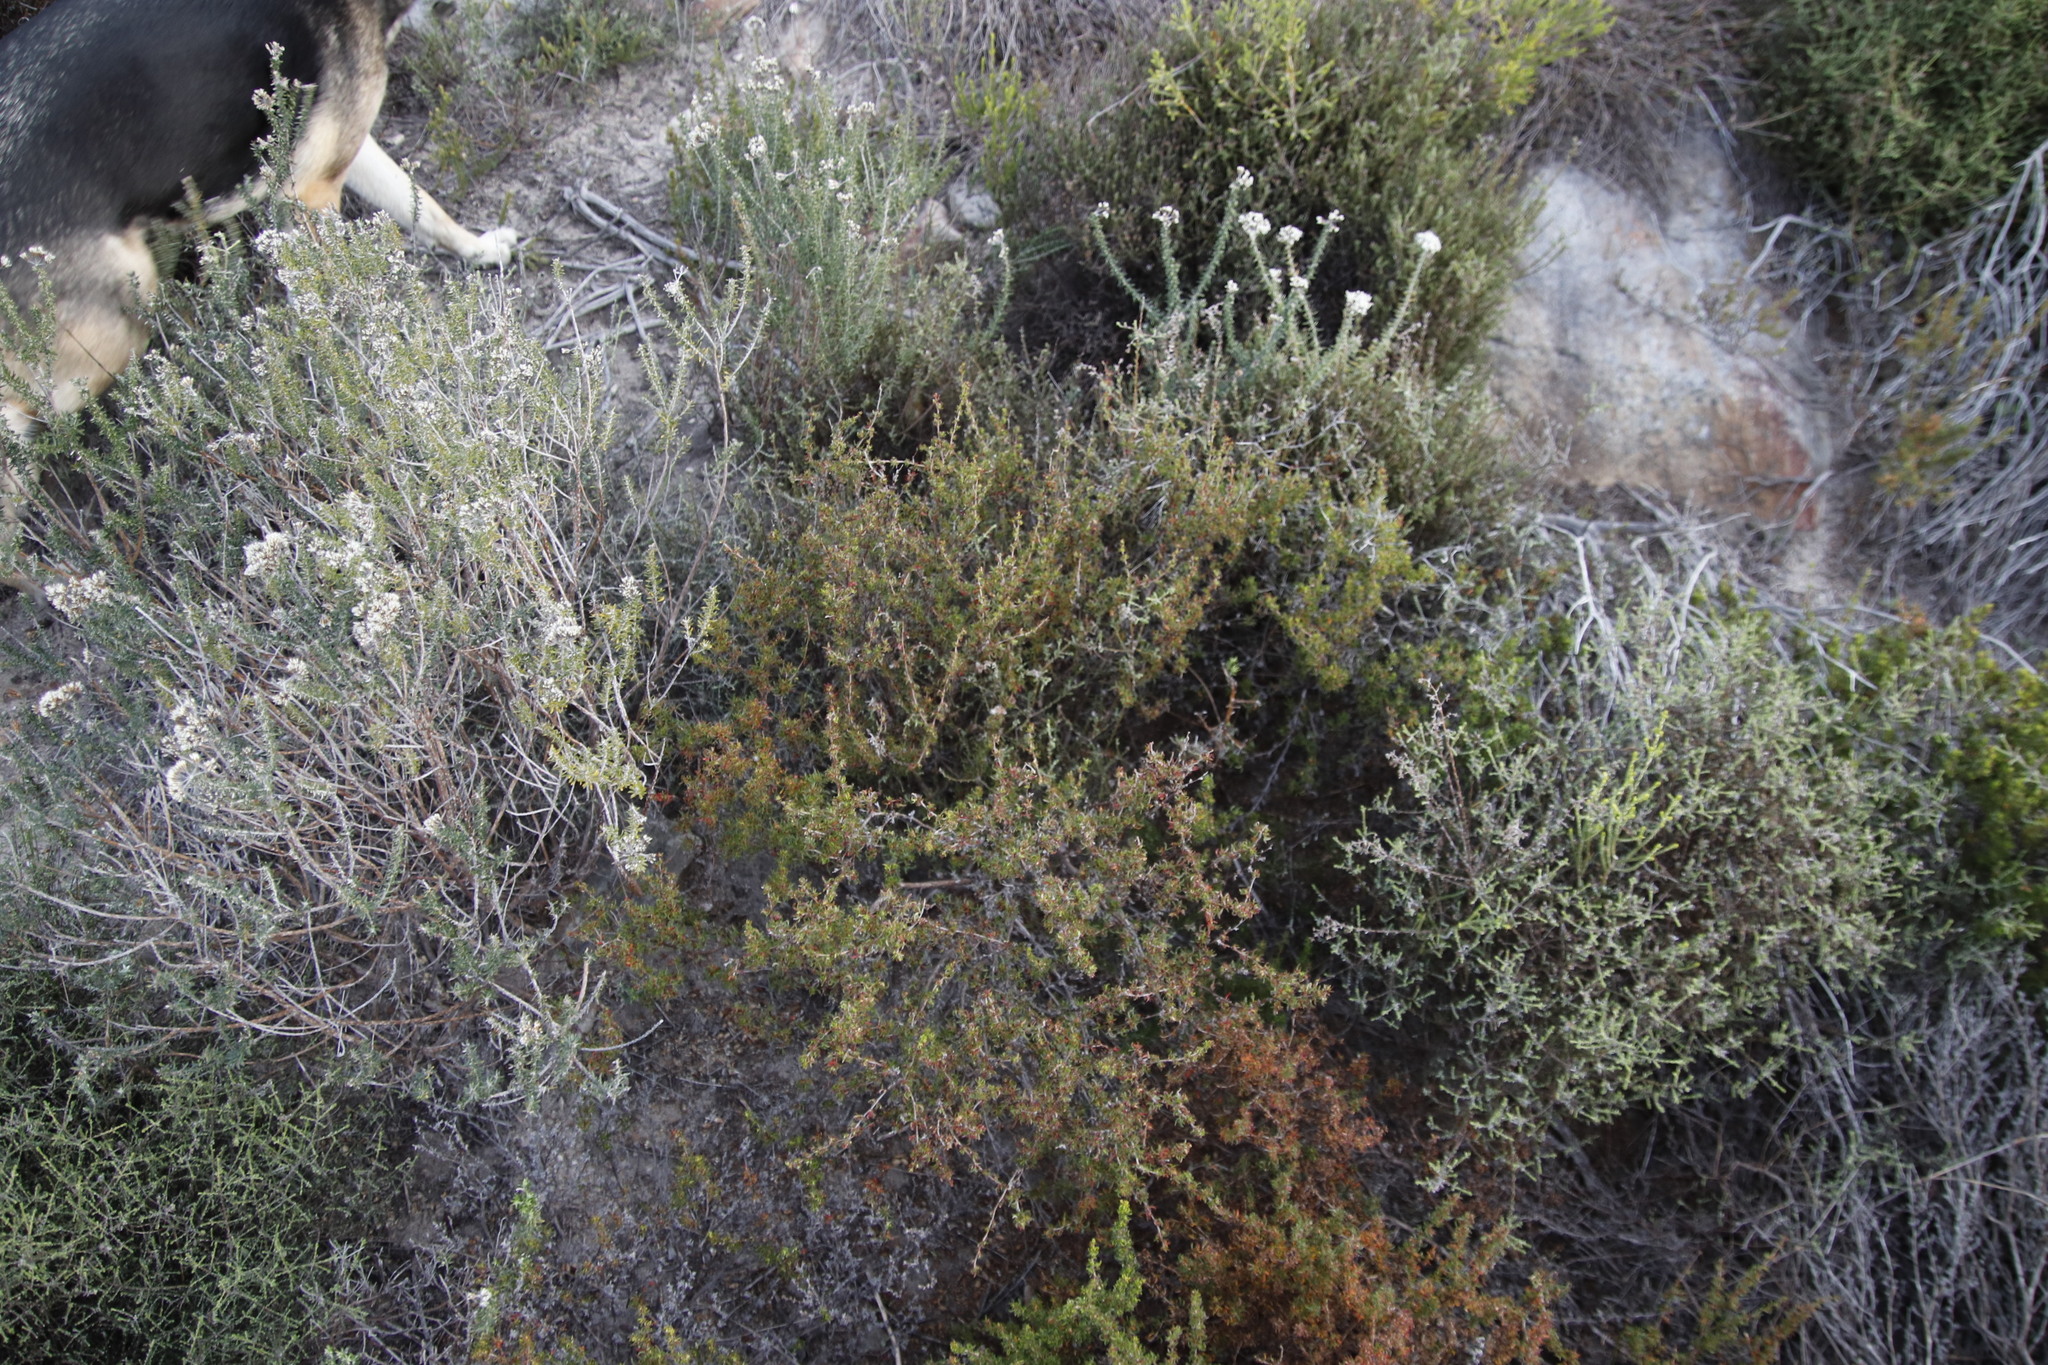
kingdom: Plantae
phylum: Tracheophyta
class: Magnoliopsida
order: Rosales
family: Rosaceae
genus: Cliffortia
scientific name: Cliffortia falcata
